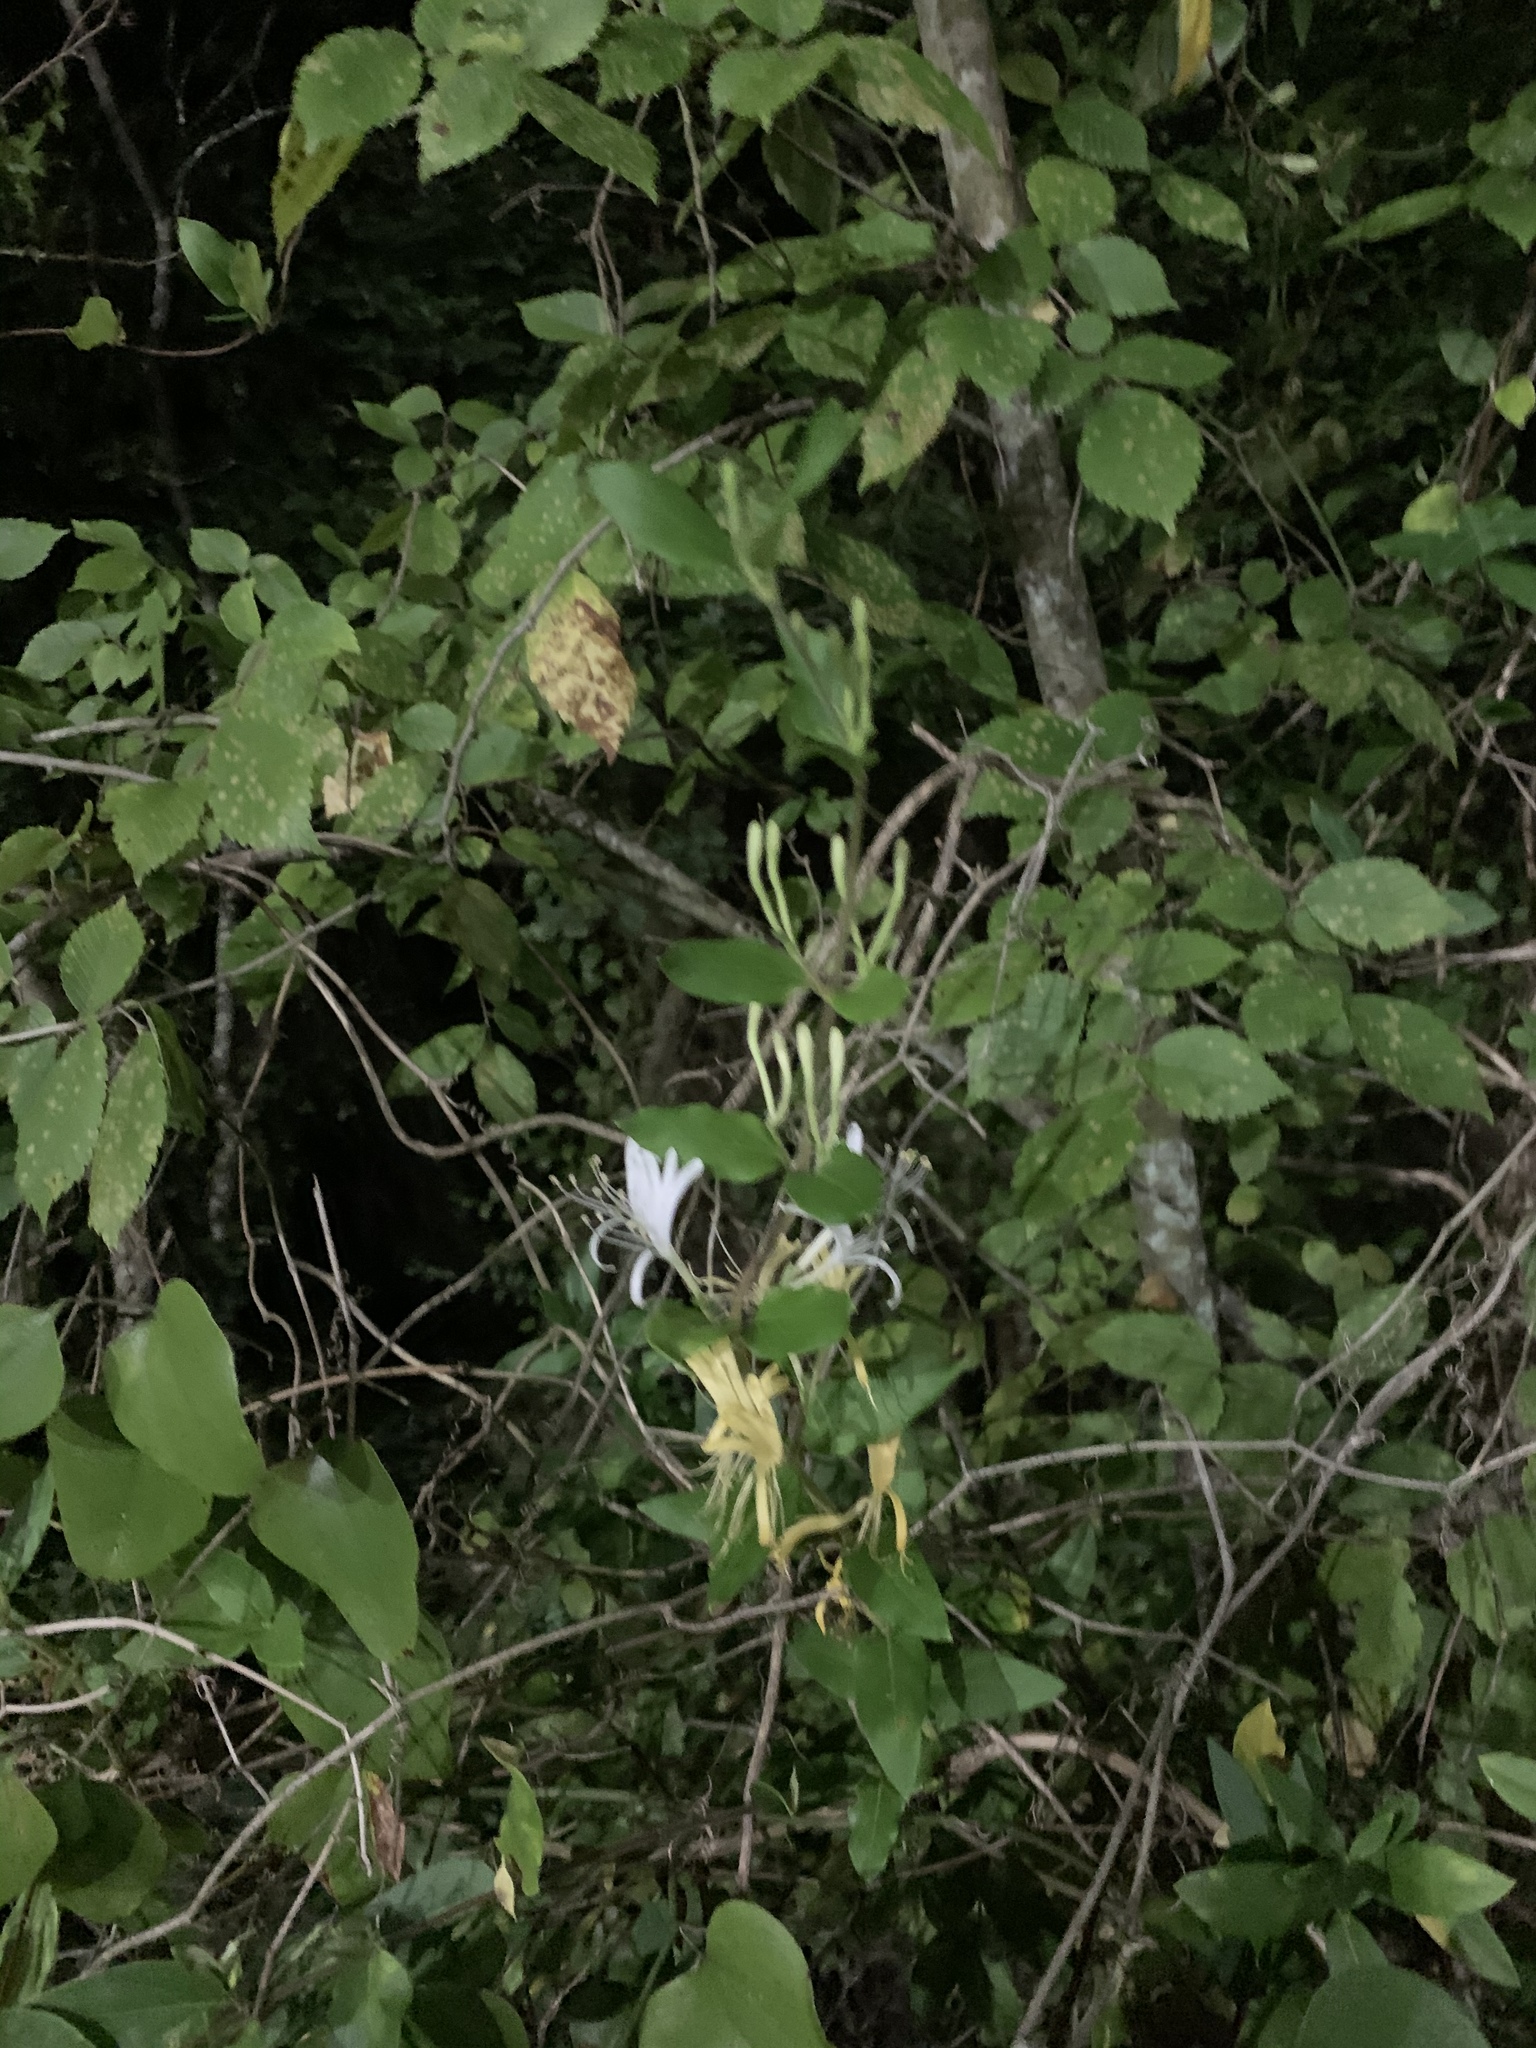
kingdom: Plantae
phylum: Tracheophyta
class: Magnoliopsida
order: Dipsacales
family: Caprifoliaceae
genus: Lonicera
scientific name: Lonicera japonica
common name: Japanese honeysuckle
